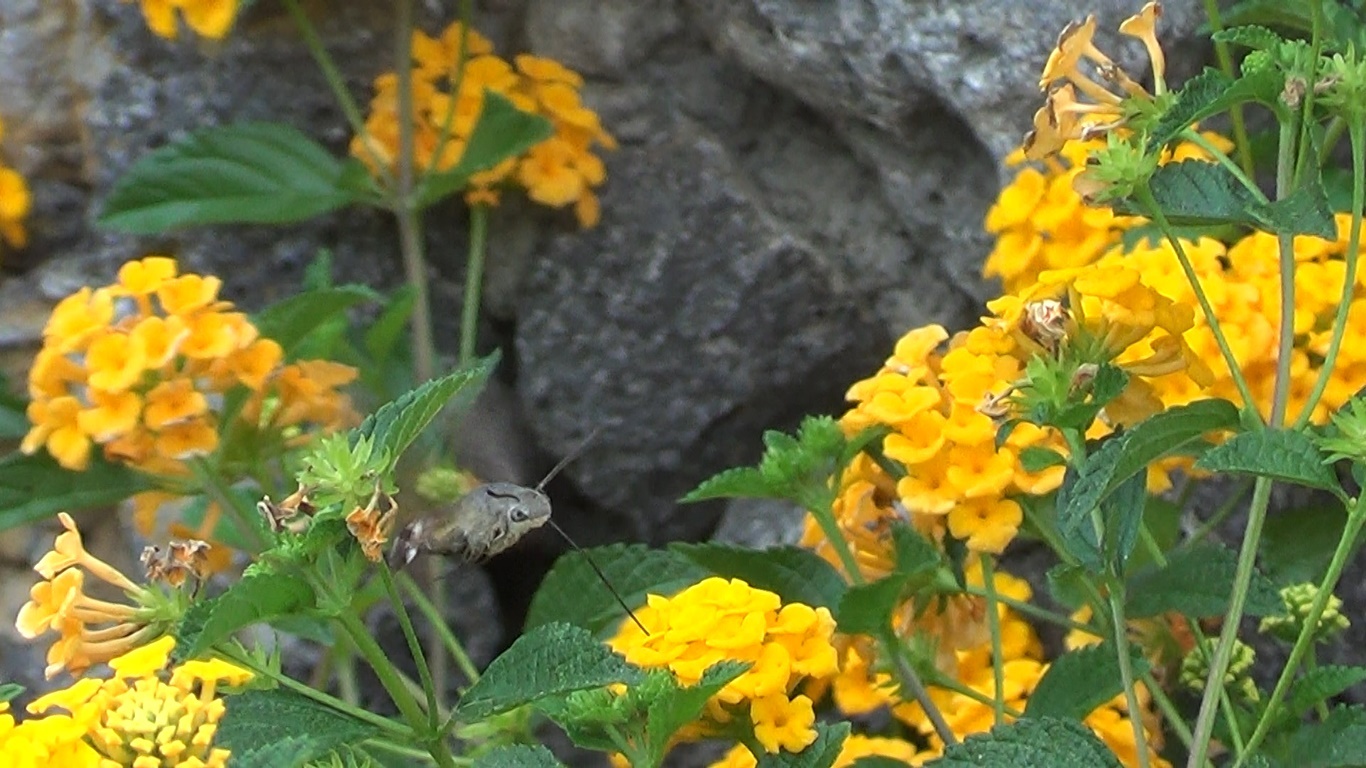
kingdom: Animalia
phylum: Arthropoda
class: Insecta
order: Lepidoptera
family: Sphingidae
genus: Macroglossum
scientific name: Macroglossum stellatarum
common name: Humming-bird hawk-moth
